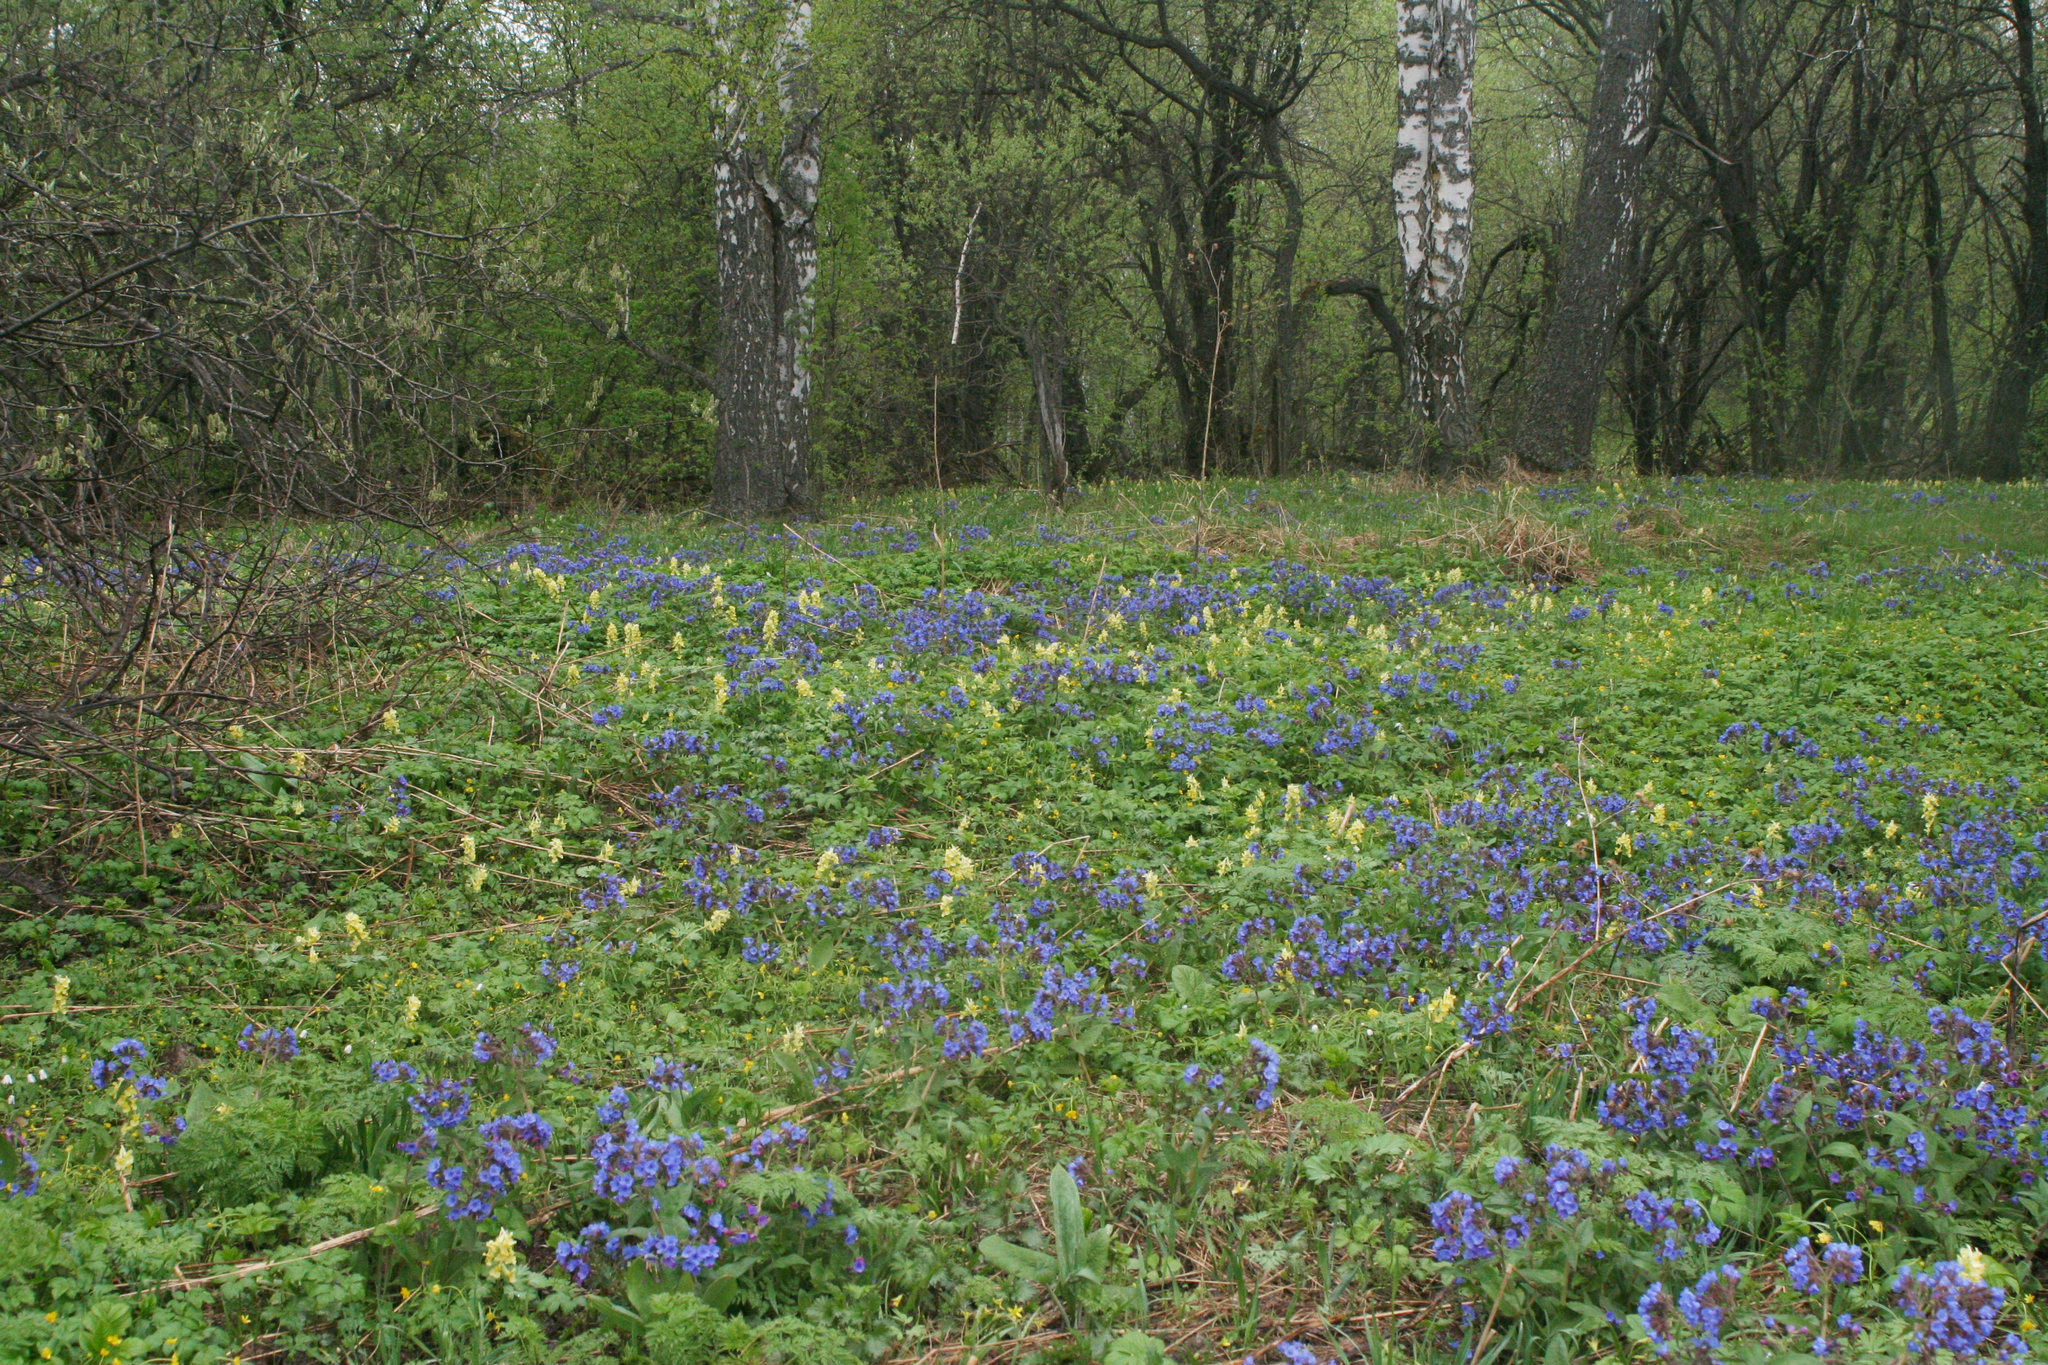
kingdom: Plantae
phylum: Tracheophyta
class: Magnoliopsida
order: Ranunculales
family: Papaveraceae
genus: Corydalis
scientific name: Corydalis bracteata
